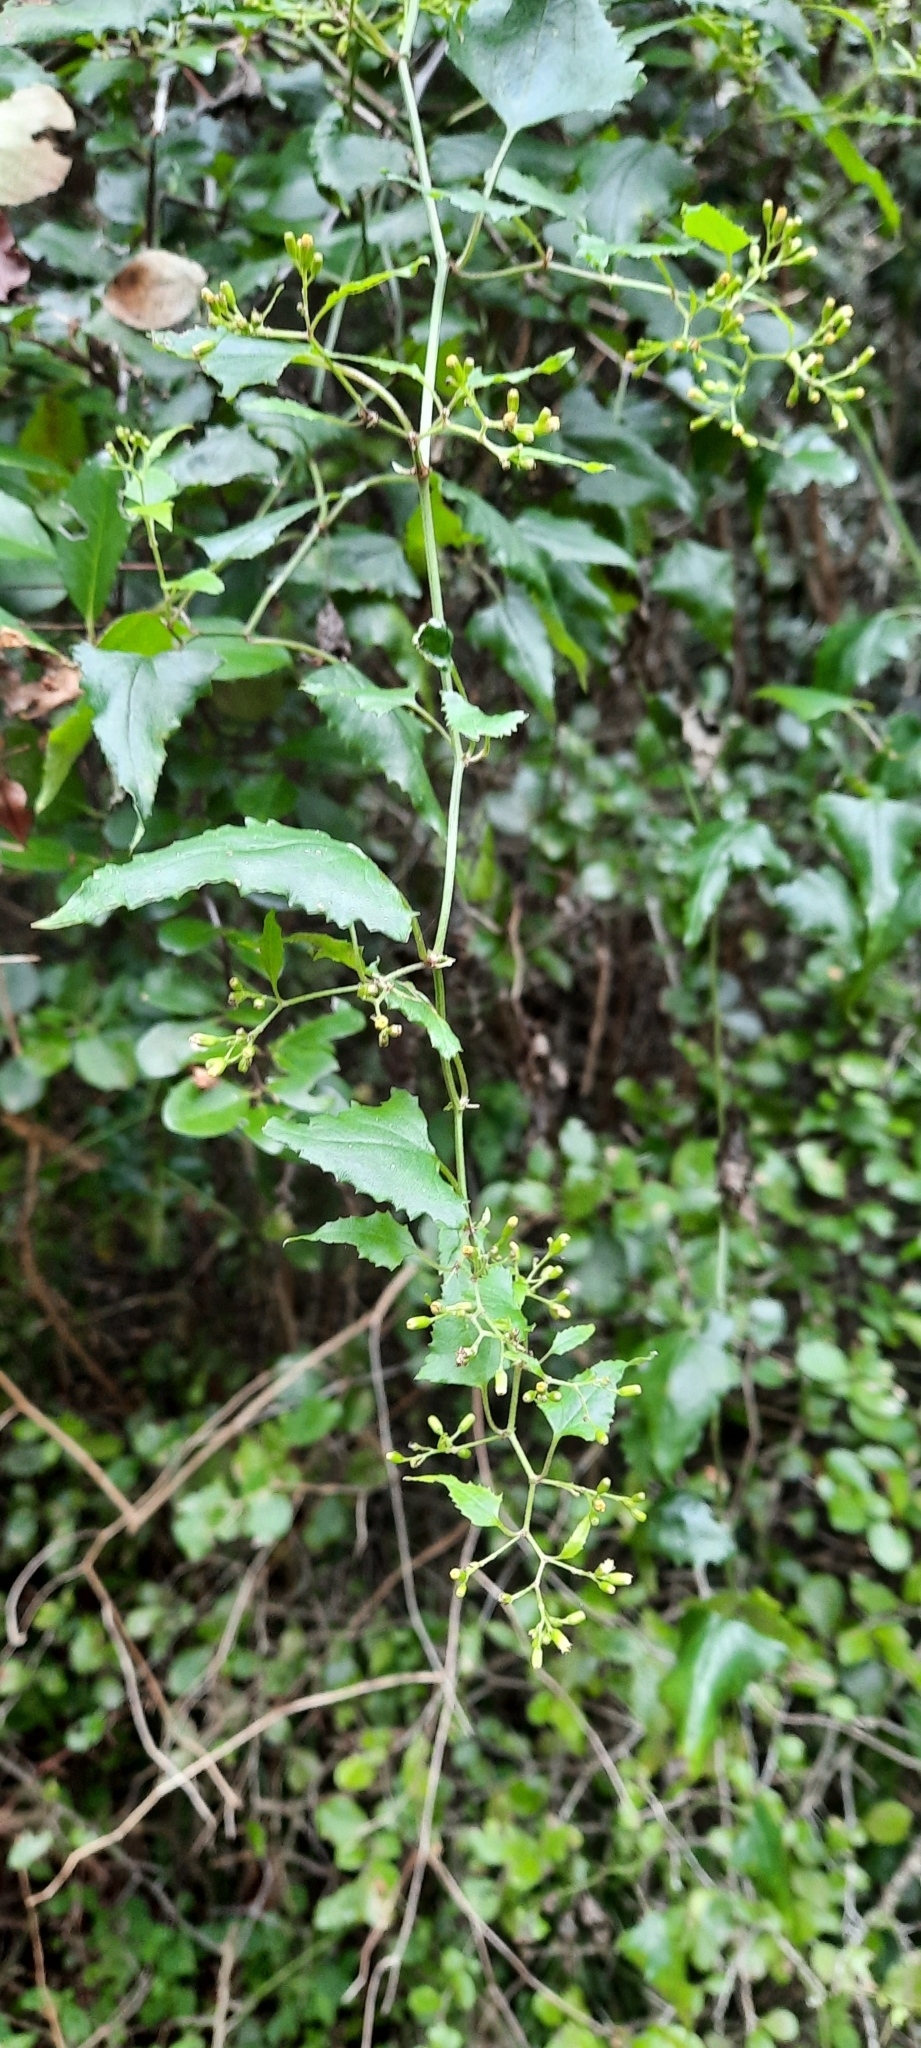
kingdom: Plantae
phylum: Tracheophyta
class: Magnoliopsida
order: Asterales
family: Asteraceae
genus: Senecio
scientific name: Senecio deltoideus
